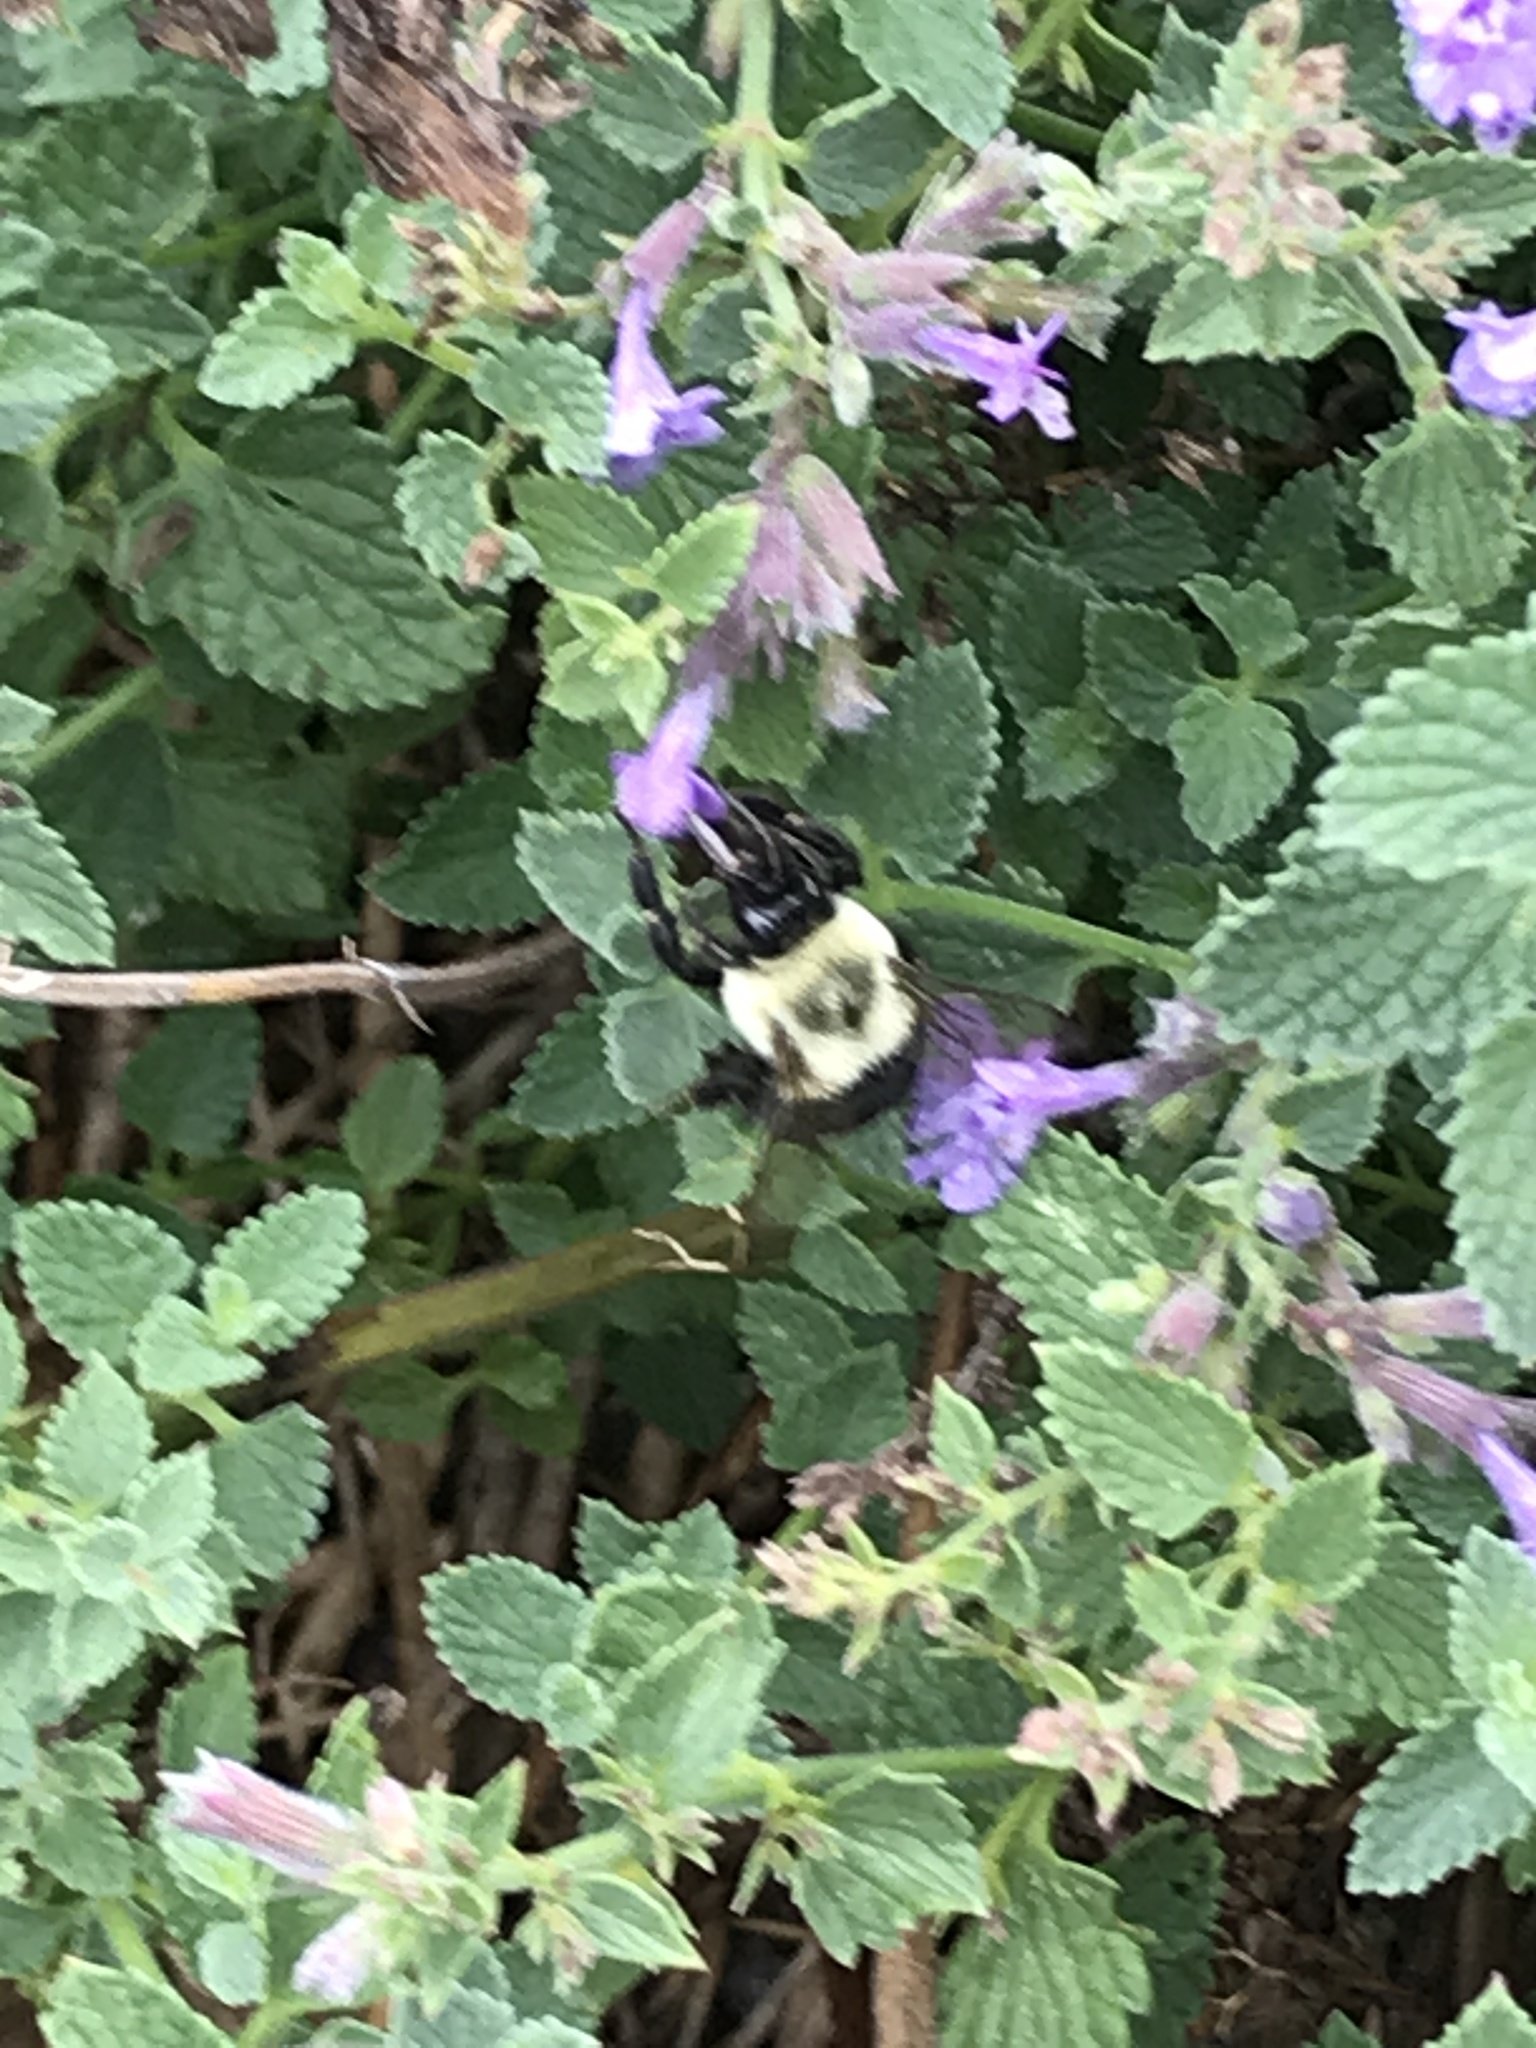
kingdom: Animalia
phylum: Arthropoda
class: Insecta
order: Hymenoptera
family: Apidae
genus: Bombus
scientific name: Bombus impatiens
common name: Common eastern bumble bee
